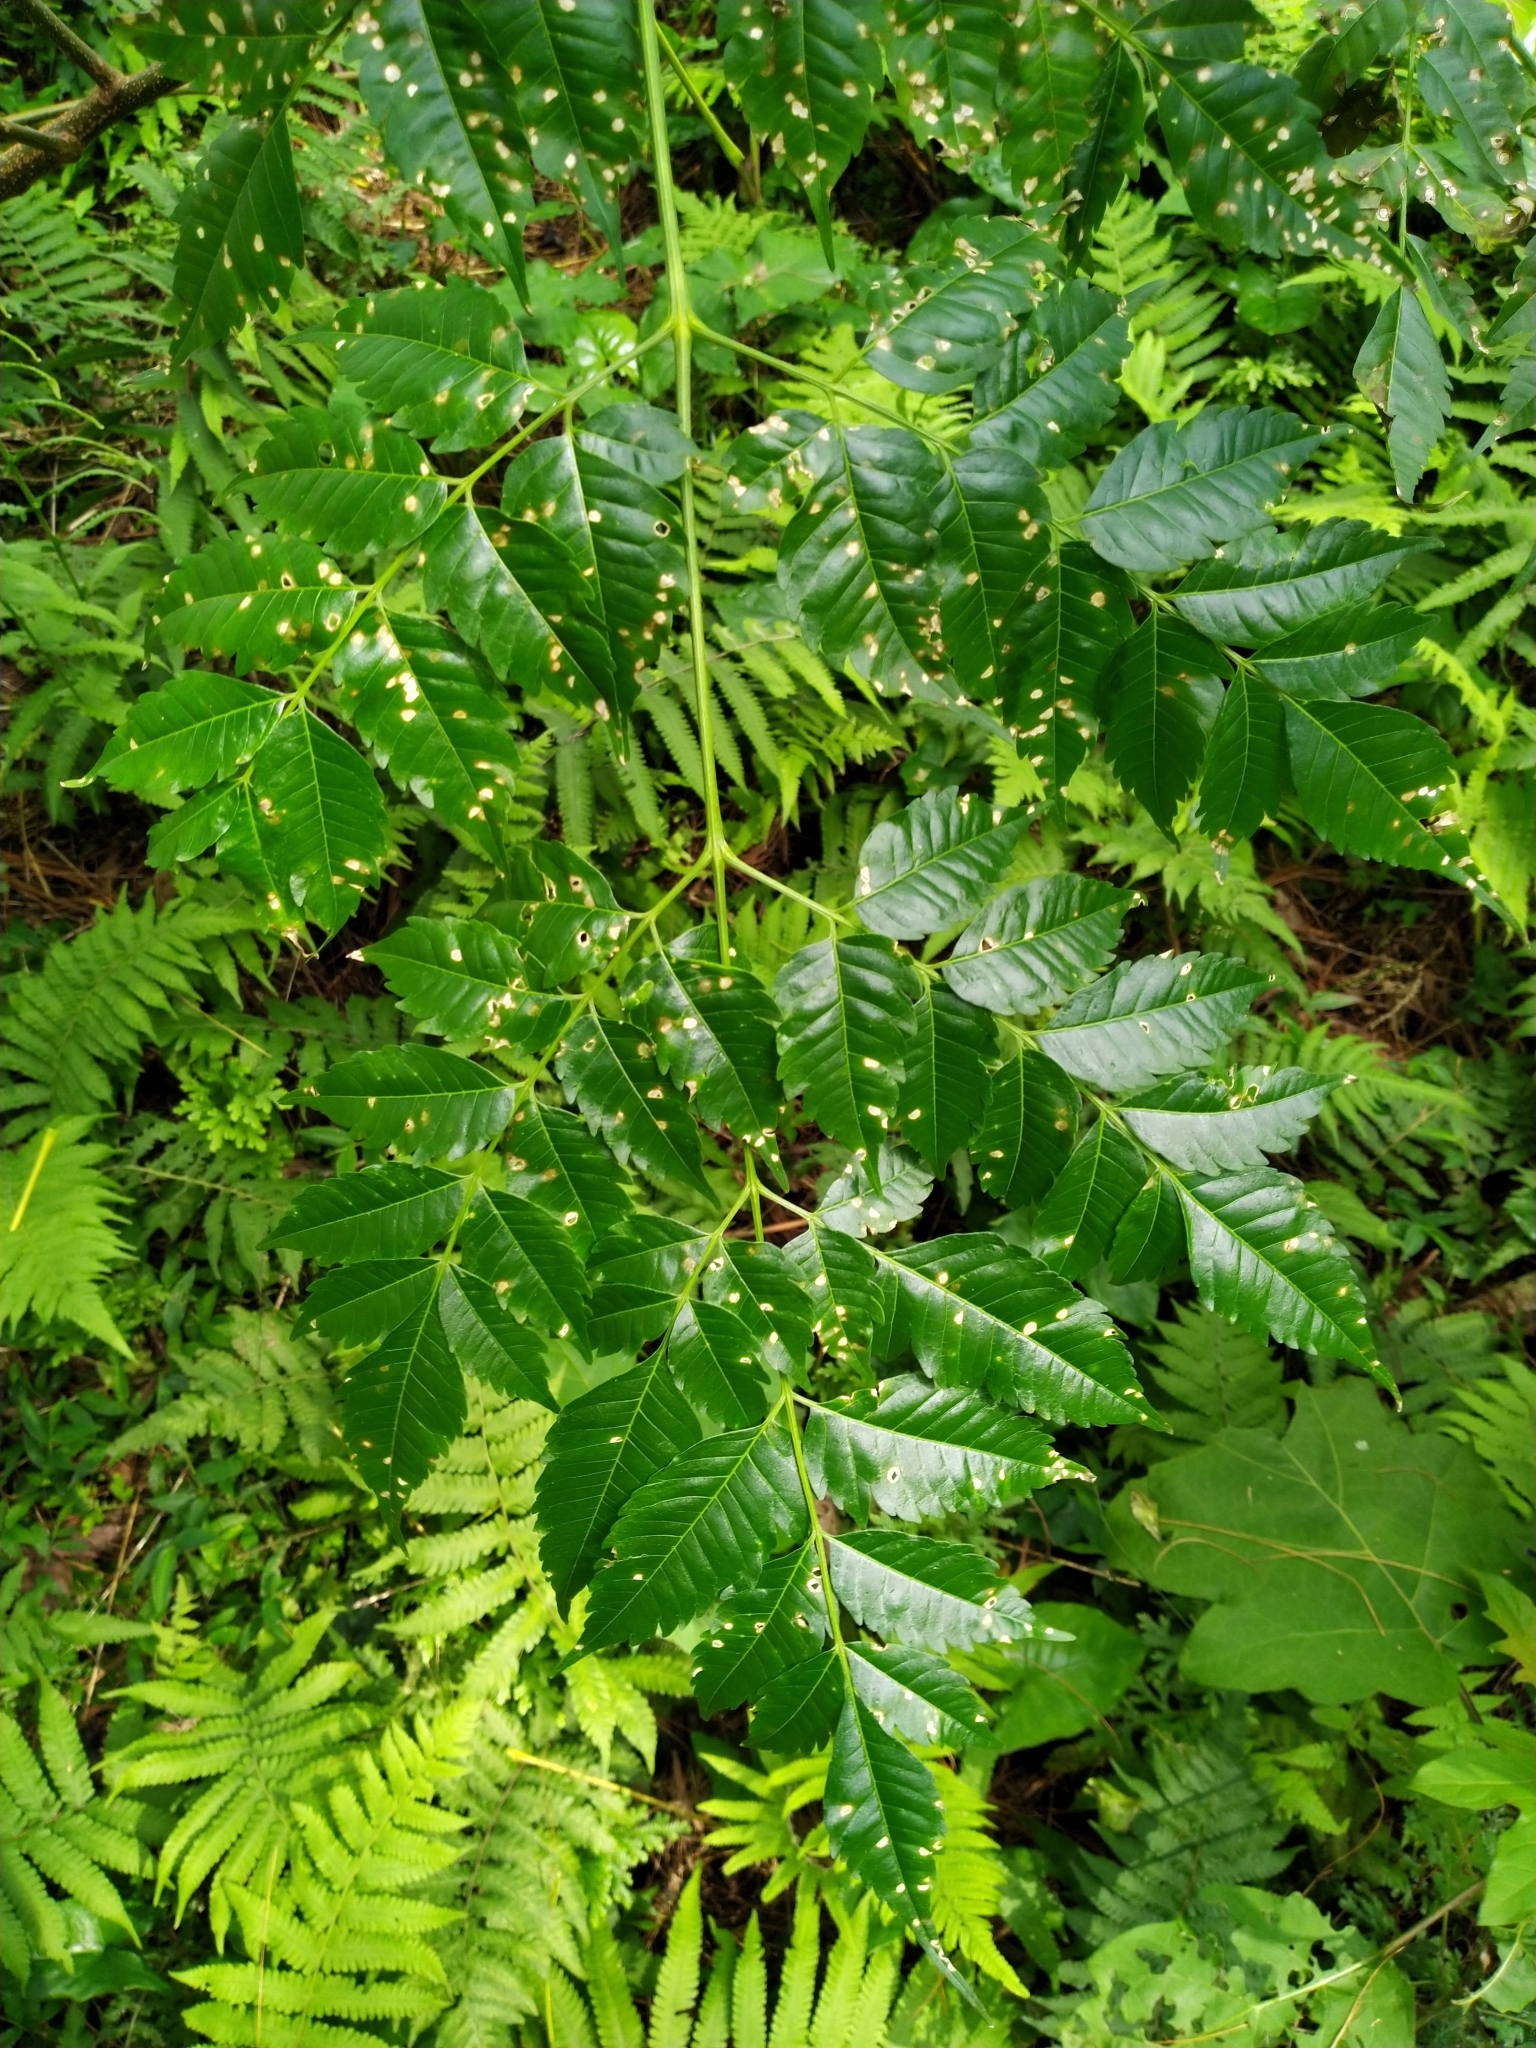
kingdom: Plantae
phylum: Tracheophyta
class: Magnoliopsida
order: Sapindales
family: Meliaceae
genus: Melia
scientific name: Melia azedarach
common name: Chinaberrytree
